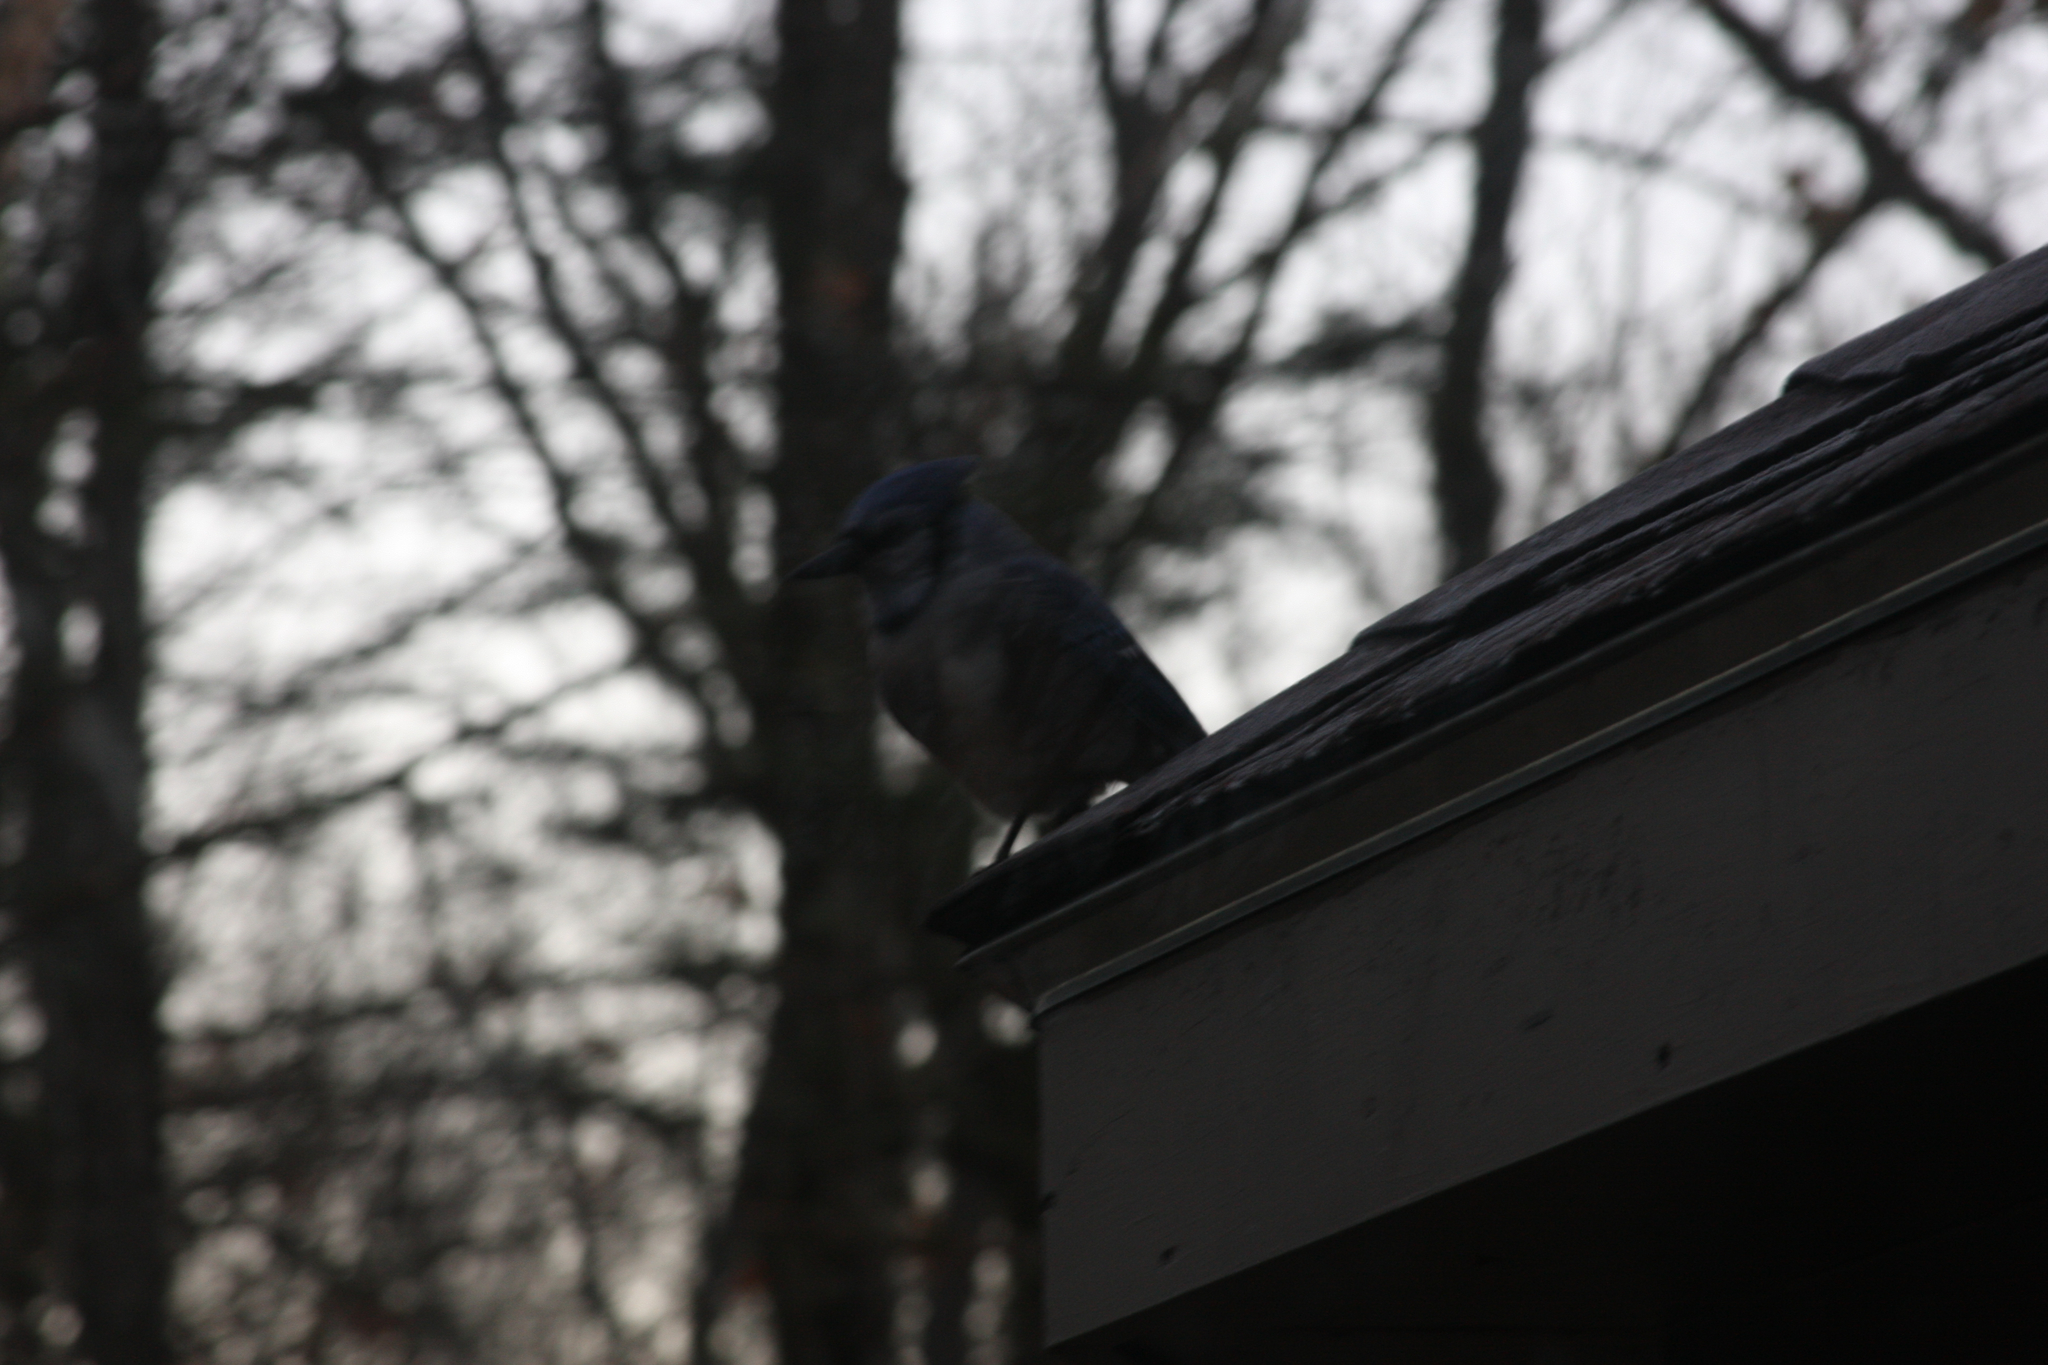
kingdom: Animalia
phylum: Chordata
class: Aves
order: Passeriformes
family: Corvidae
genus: Cyanocitta
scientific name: Cyanocitta cristata
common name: Blue jay
